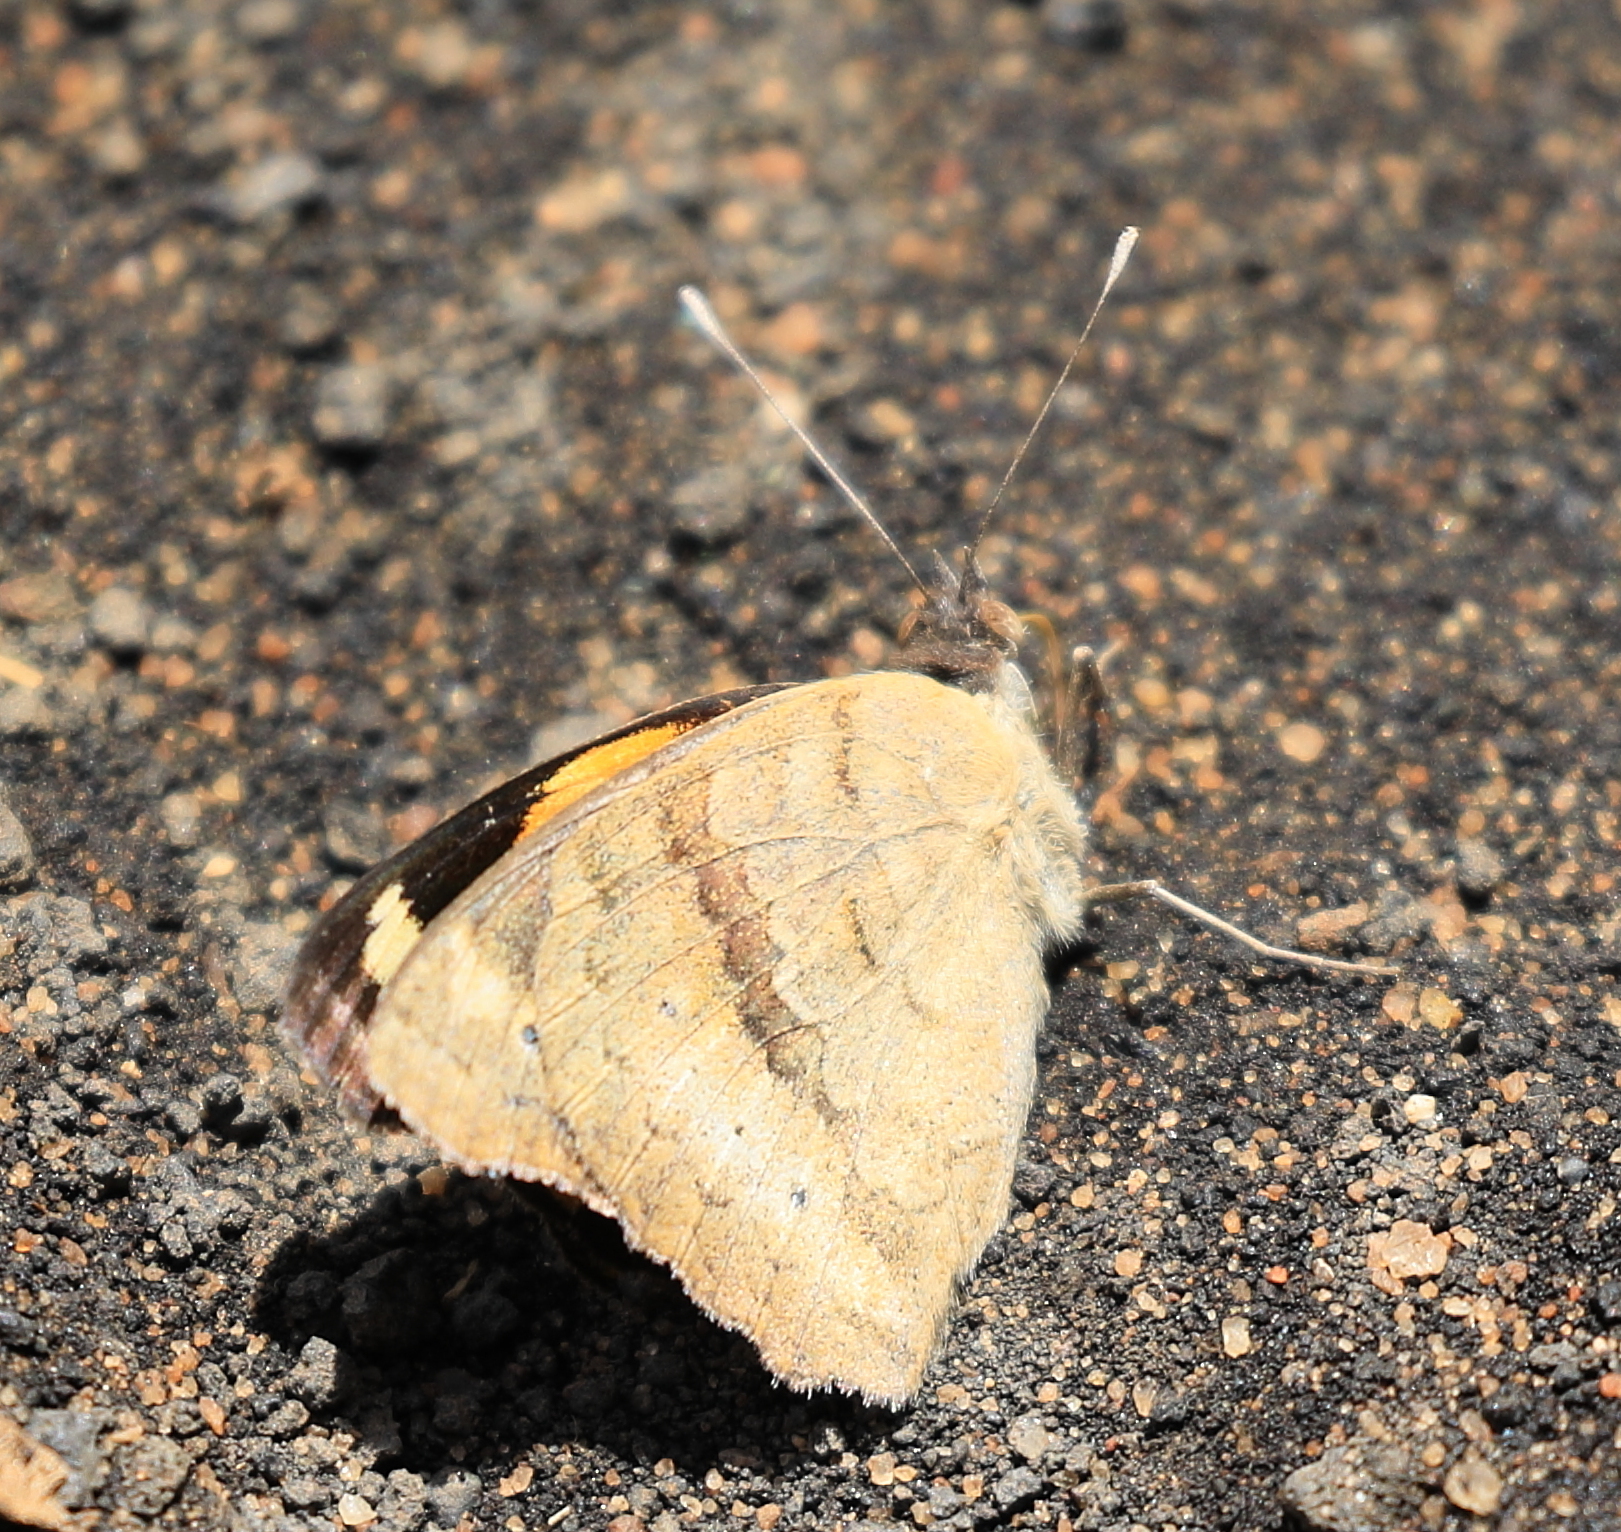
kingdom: Animalia
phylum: Arthropoda
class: Insecta
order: Lepidoptera
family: Nymphalidae
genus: Junonia
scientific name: Junonia hierta
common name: Yellow pansy
